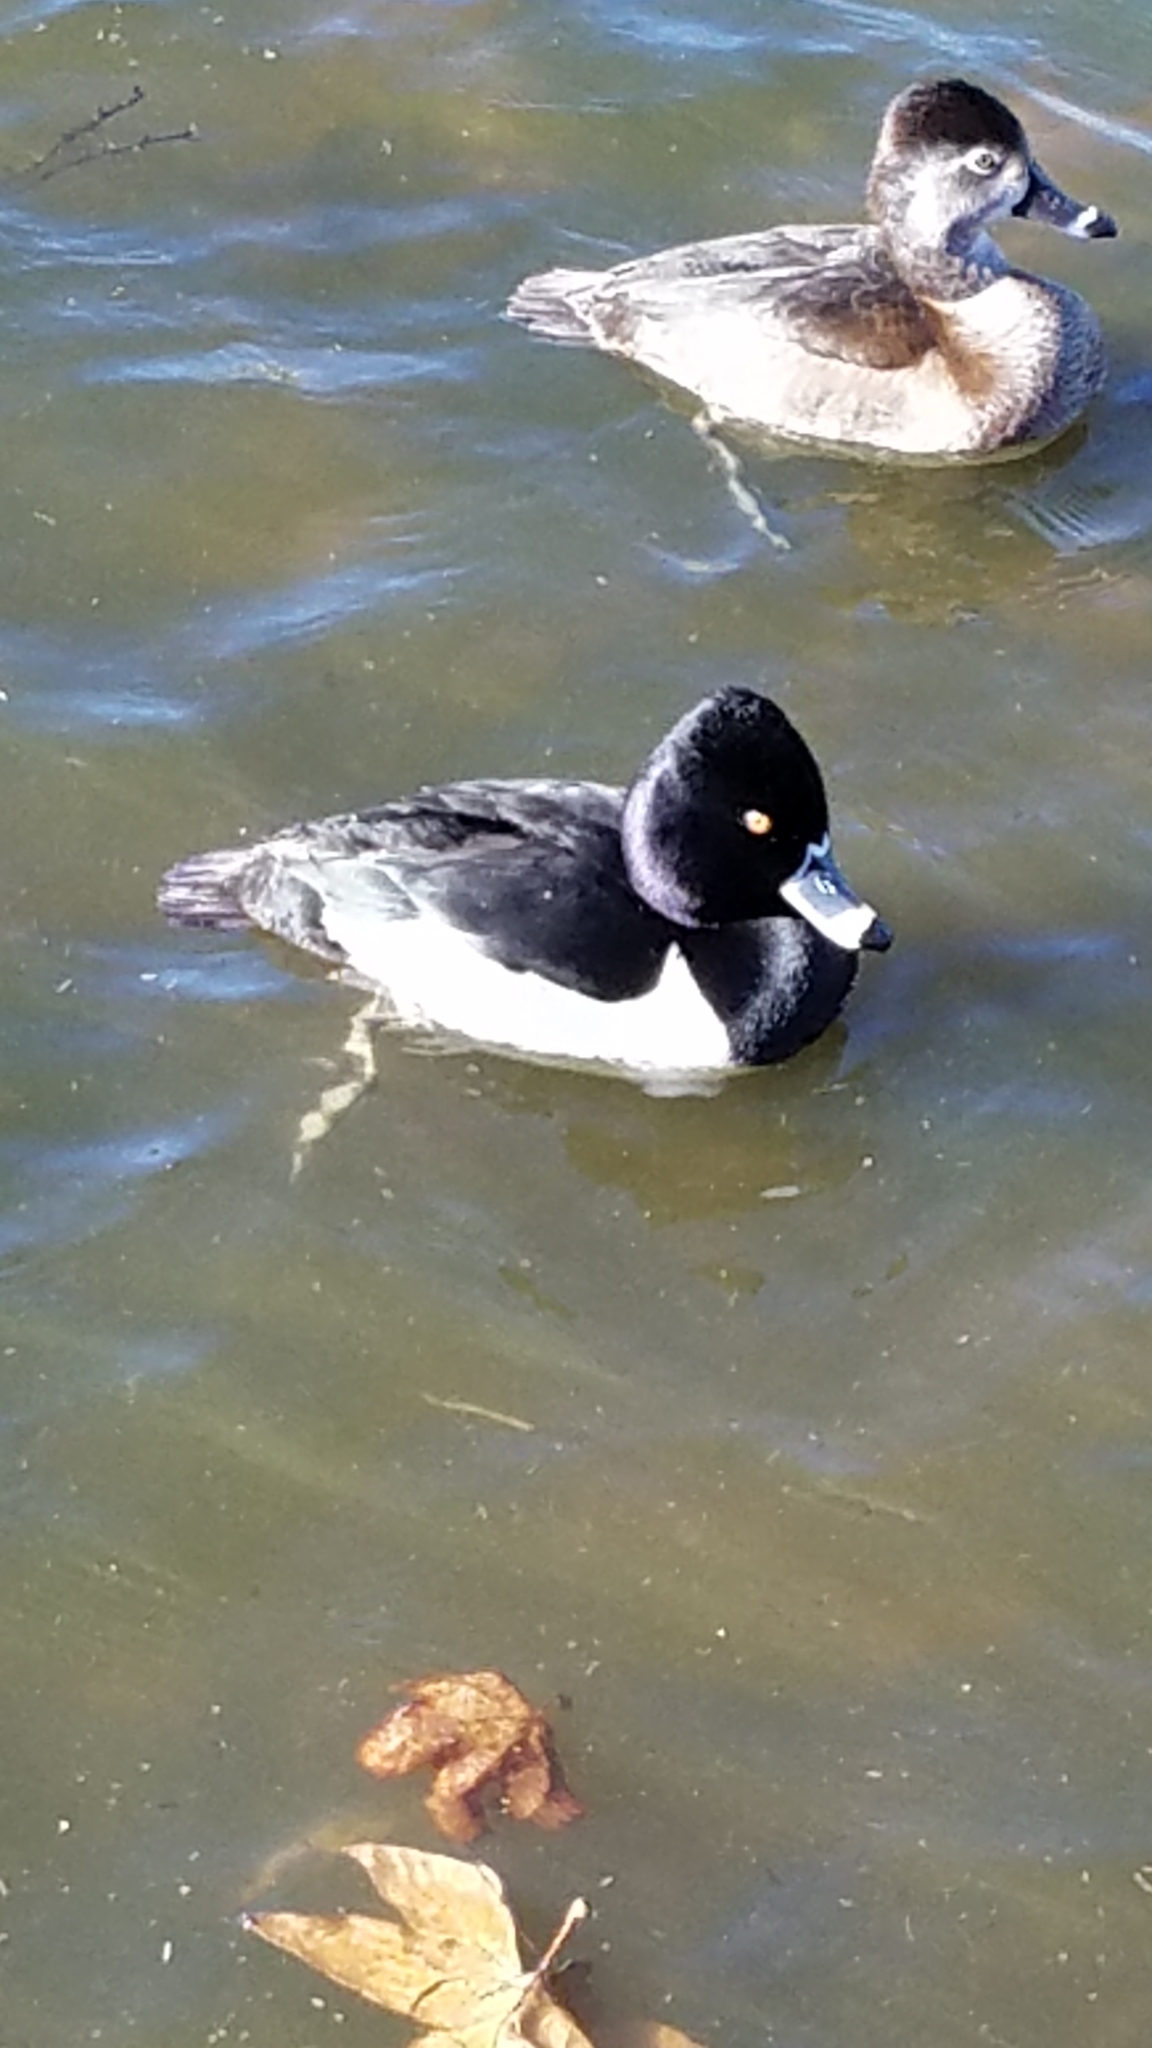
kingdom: Animalia
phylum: Chordata
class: Aves
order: Anseriformes
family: Anatidae
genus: Aythya
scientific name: Aythya collaris
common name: Ring-necked duck
